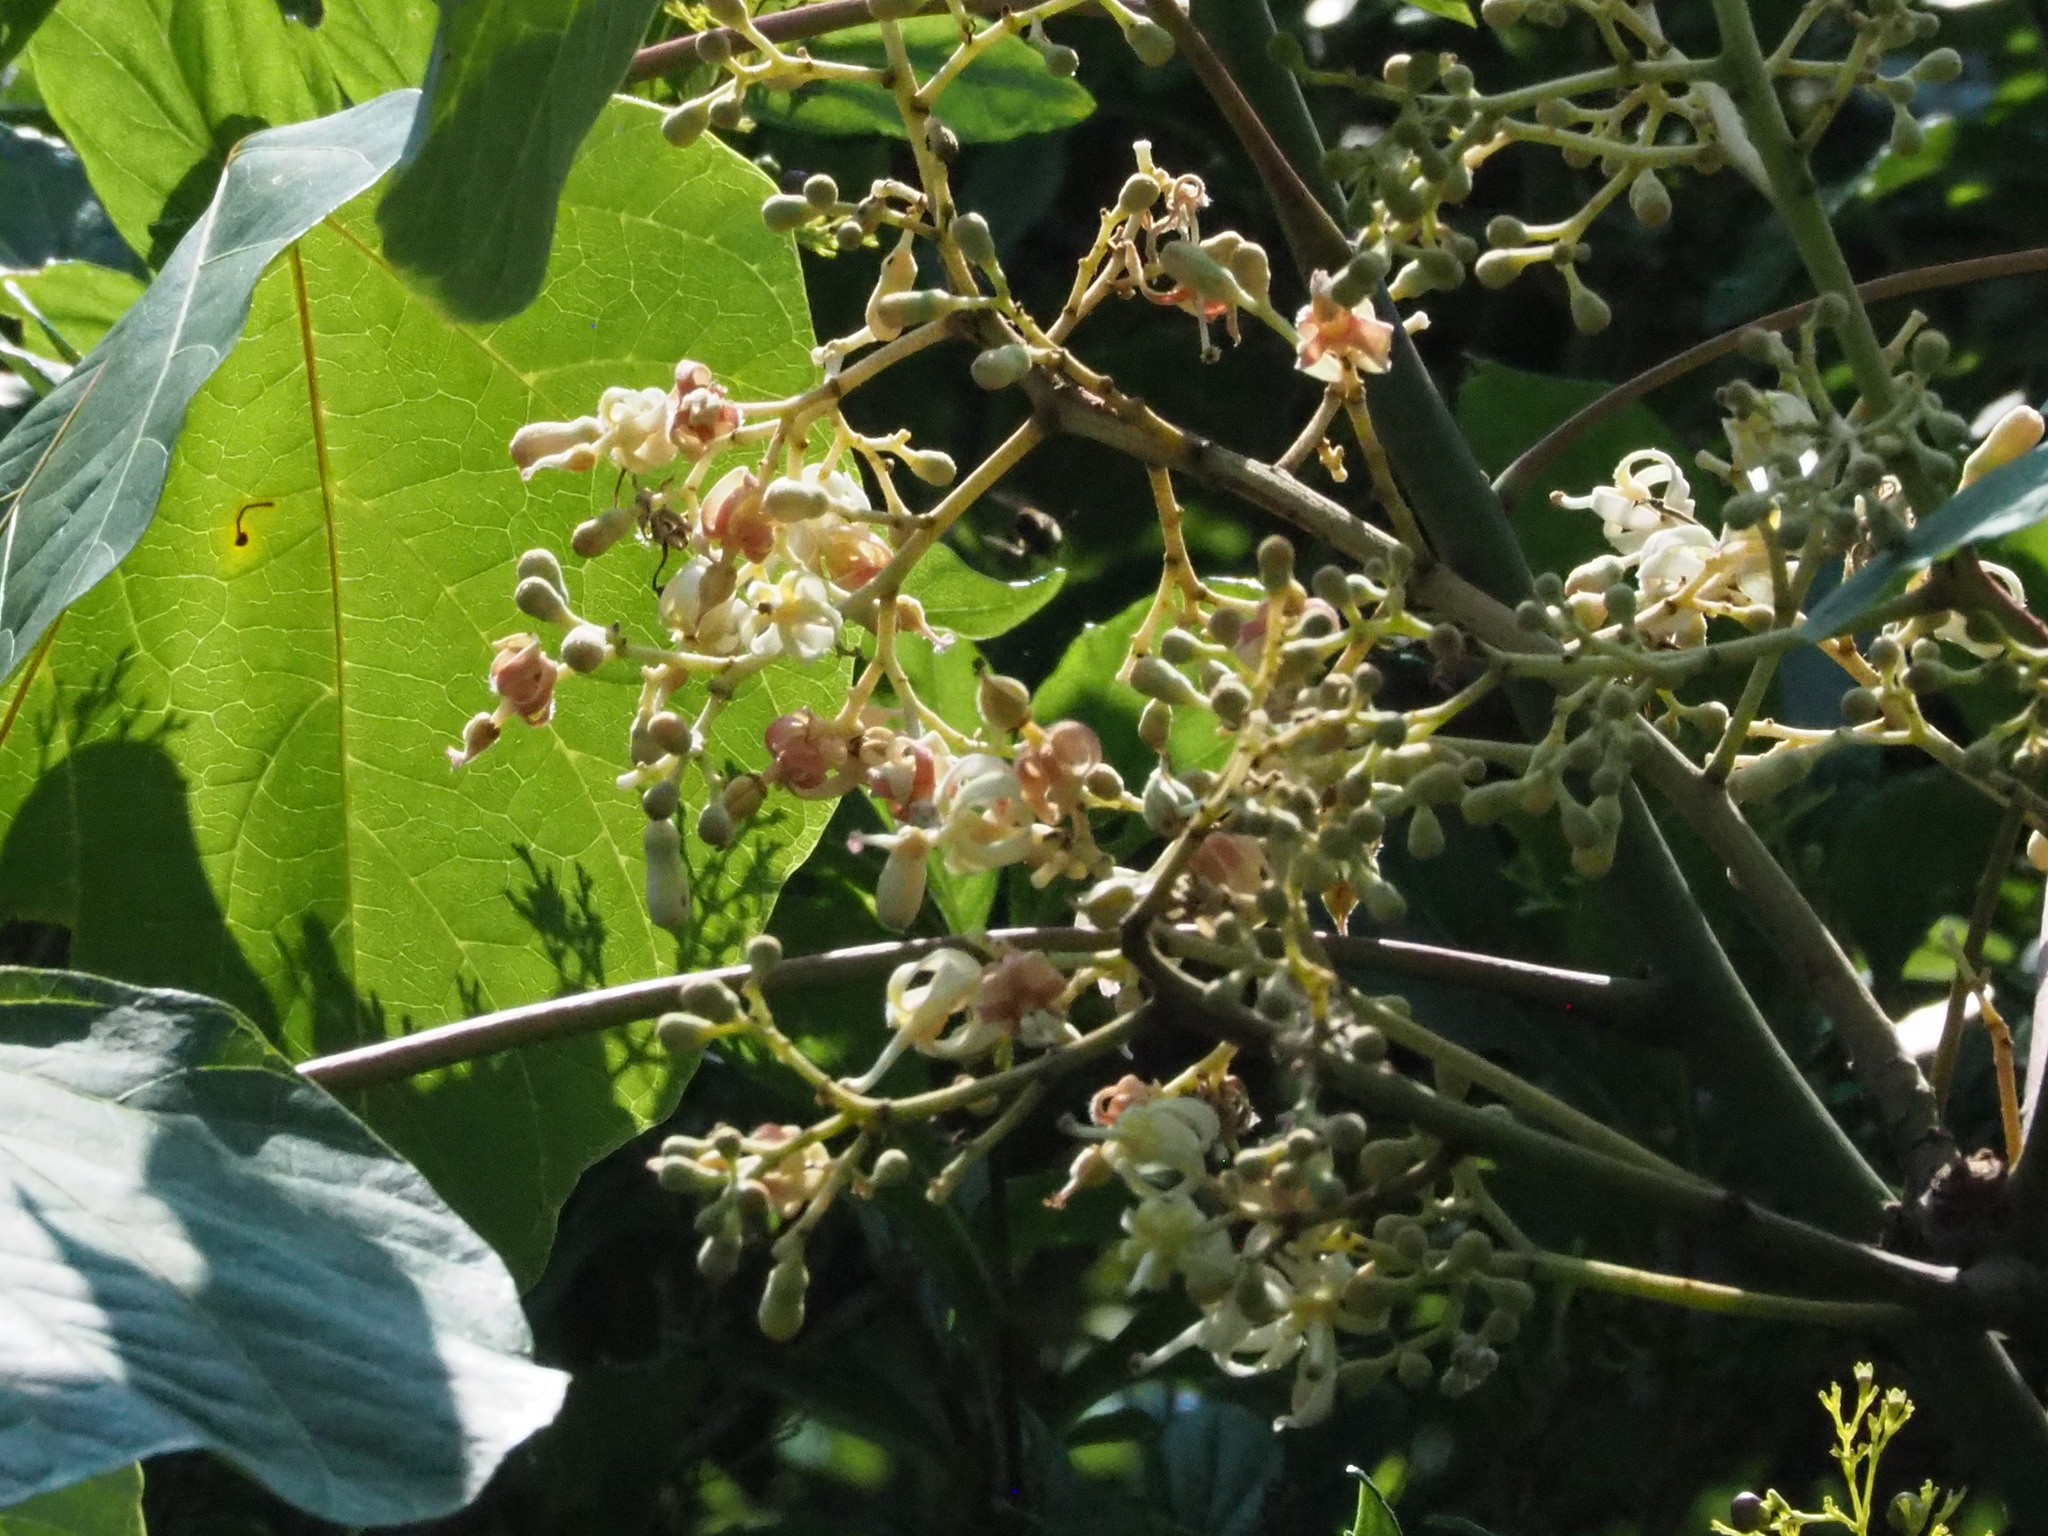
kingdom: Plantae
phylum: Tracheophyta
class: Magnoliopsida
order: Malvales
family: Malvaceae
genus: Firmiana
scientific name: Firmiana simplex
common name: Chinese parasoltree
